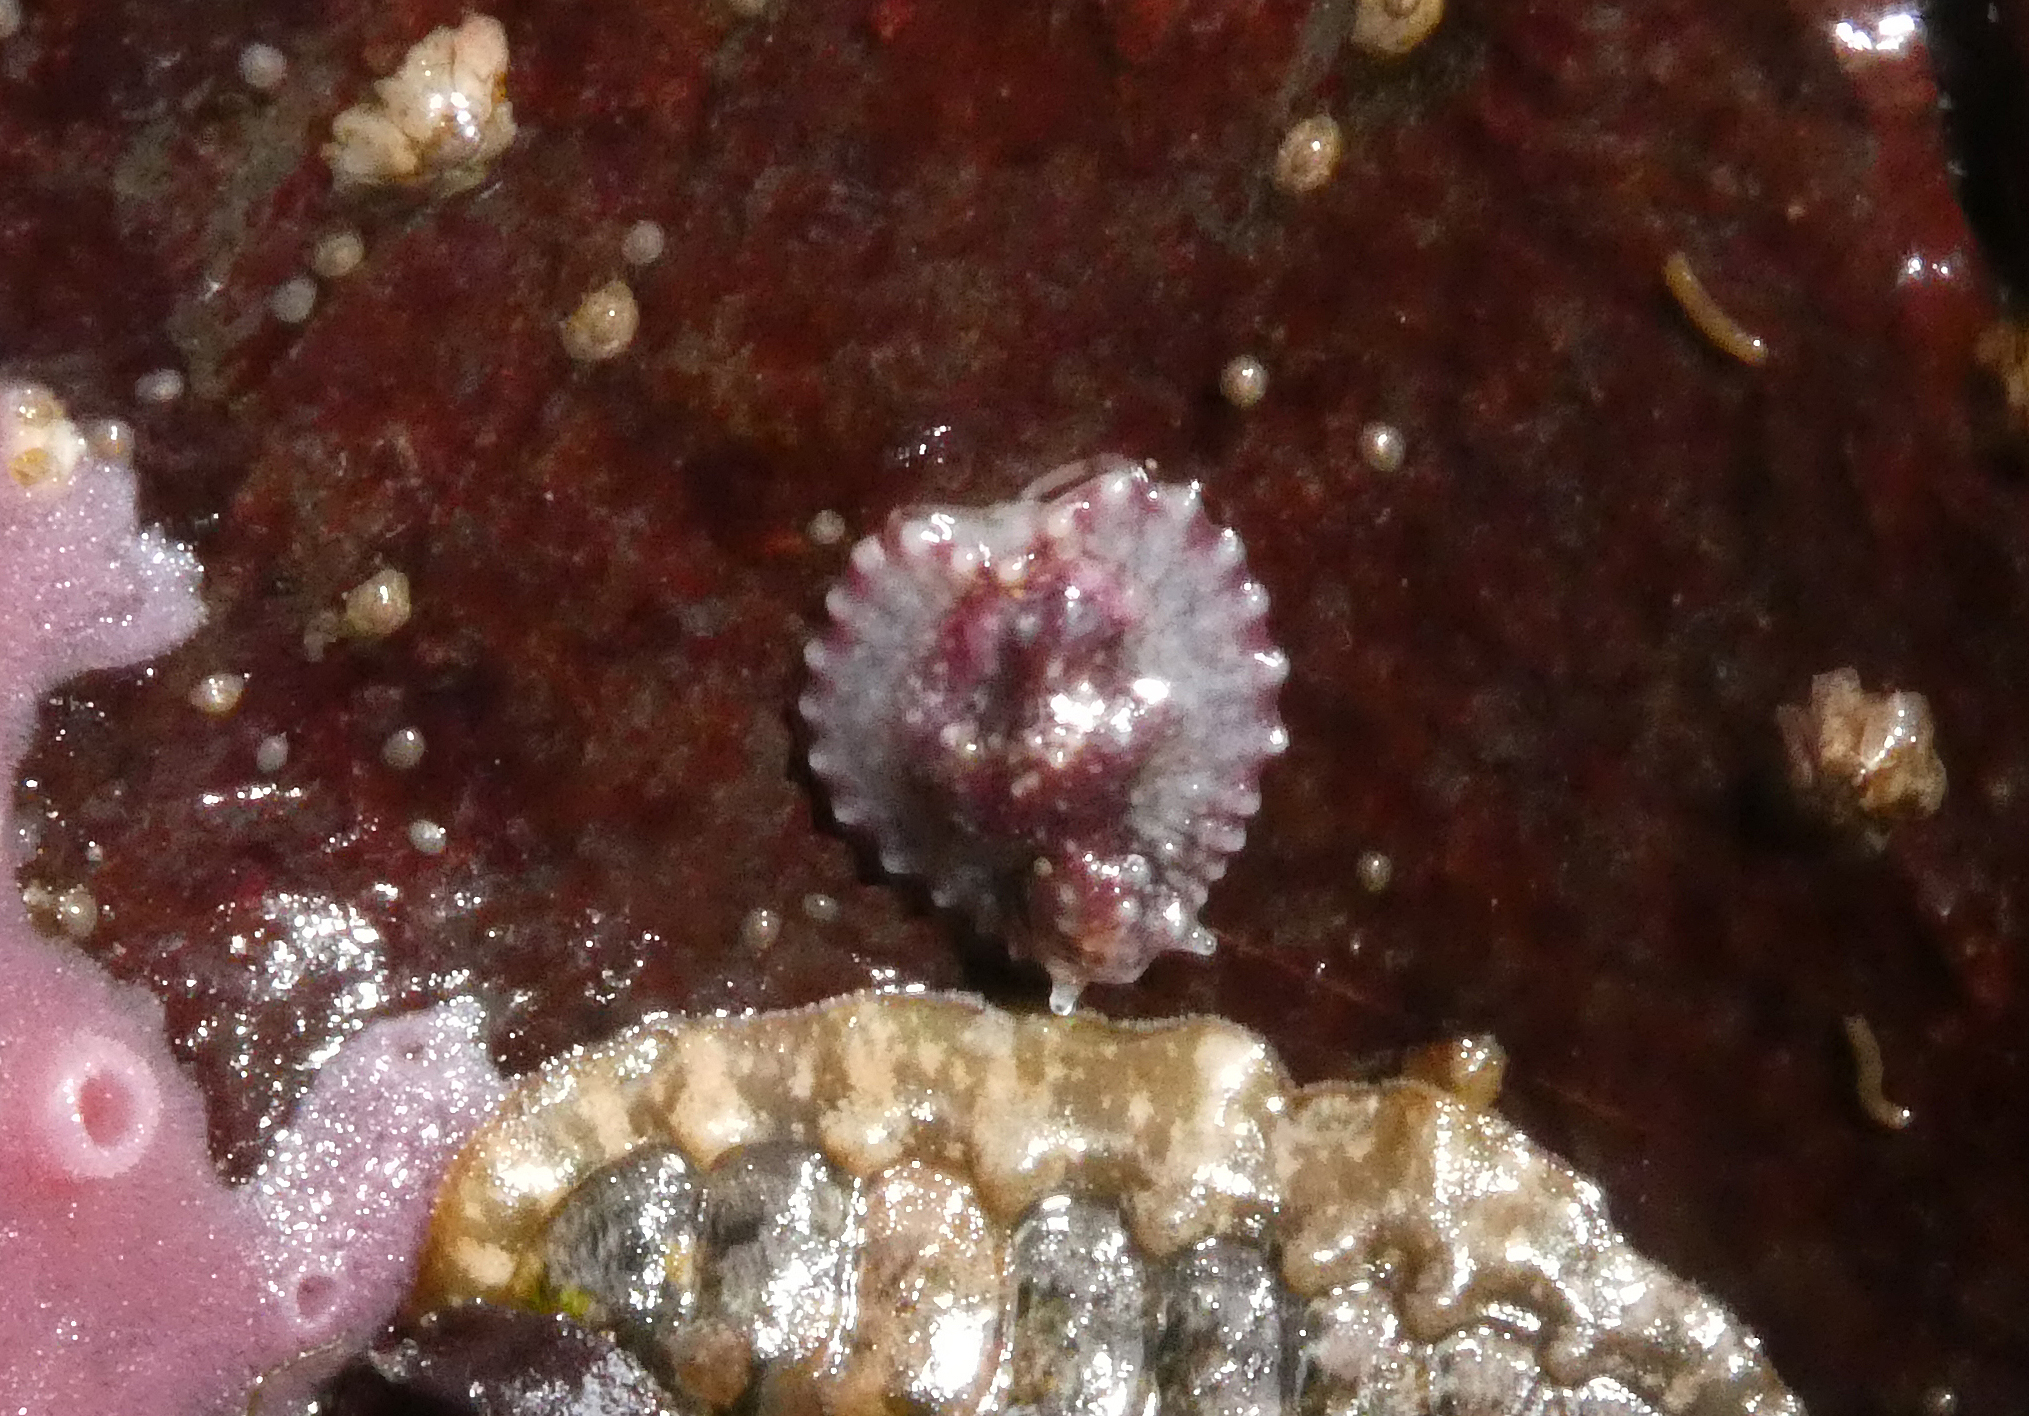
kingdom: Animalia
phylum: Mollusca
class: Gastropoda
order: Systellommatophora
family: Onchidiidae
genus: Onchidella
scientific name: Onchidella carpenteri
